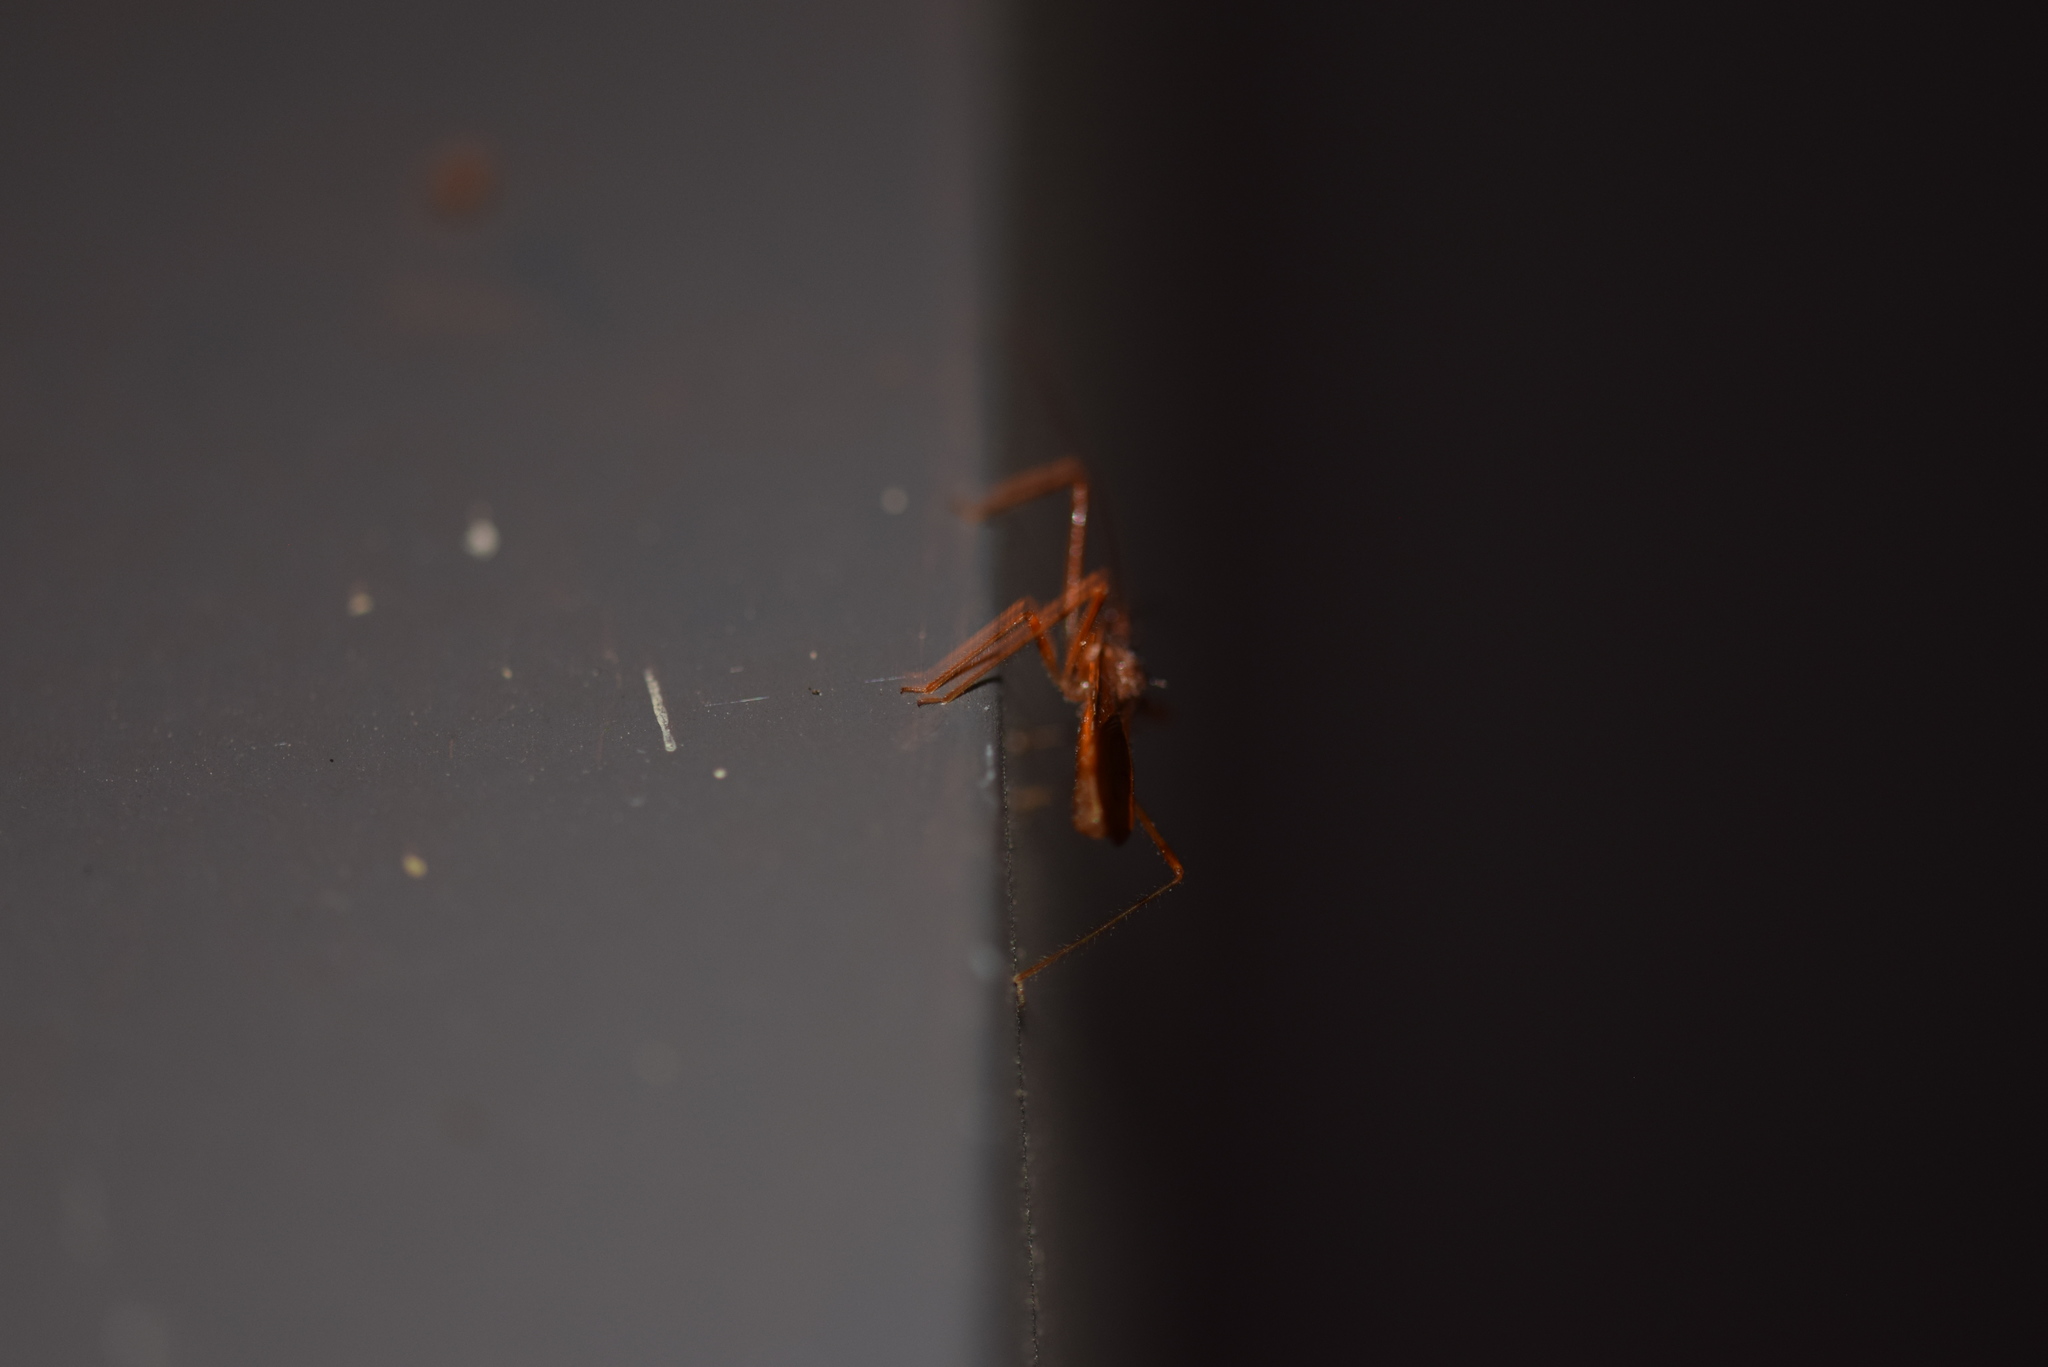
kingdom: Animalia
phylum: Arthropoda
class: Insecta
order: Hemiptera
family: Reduviidae
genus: Rocconota
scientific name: Rocconota annulicornis
